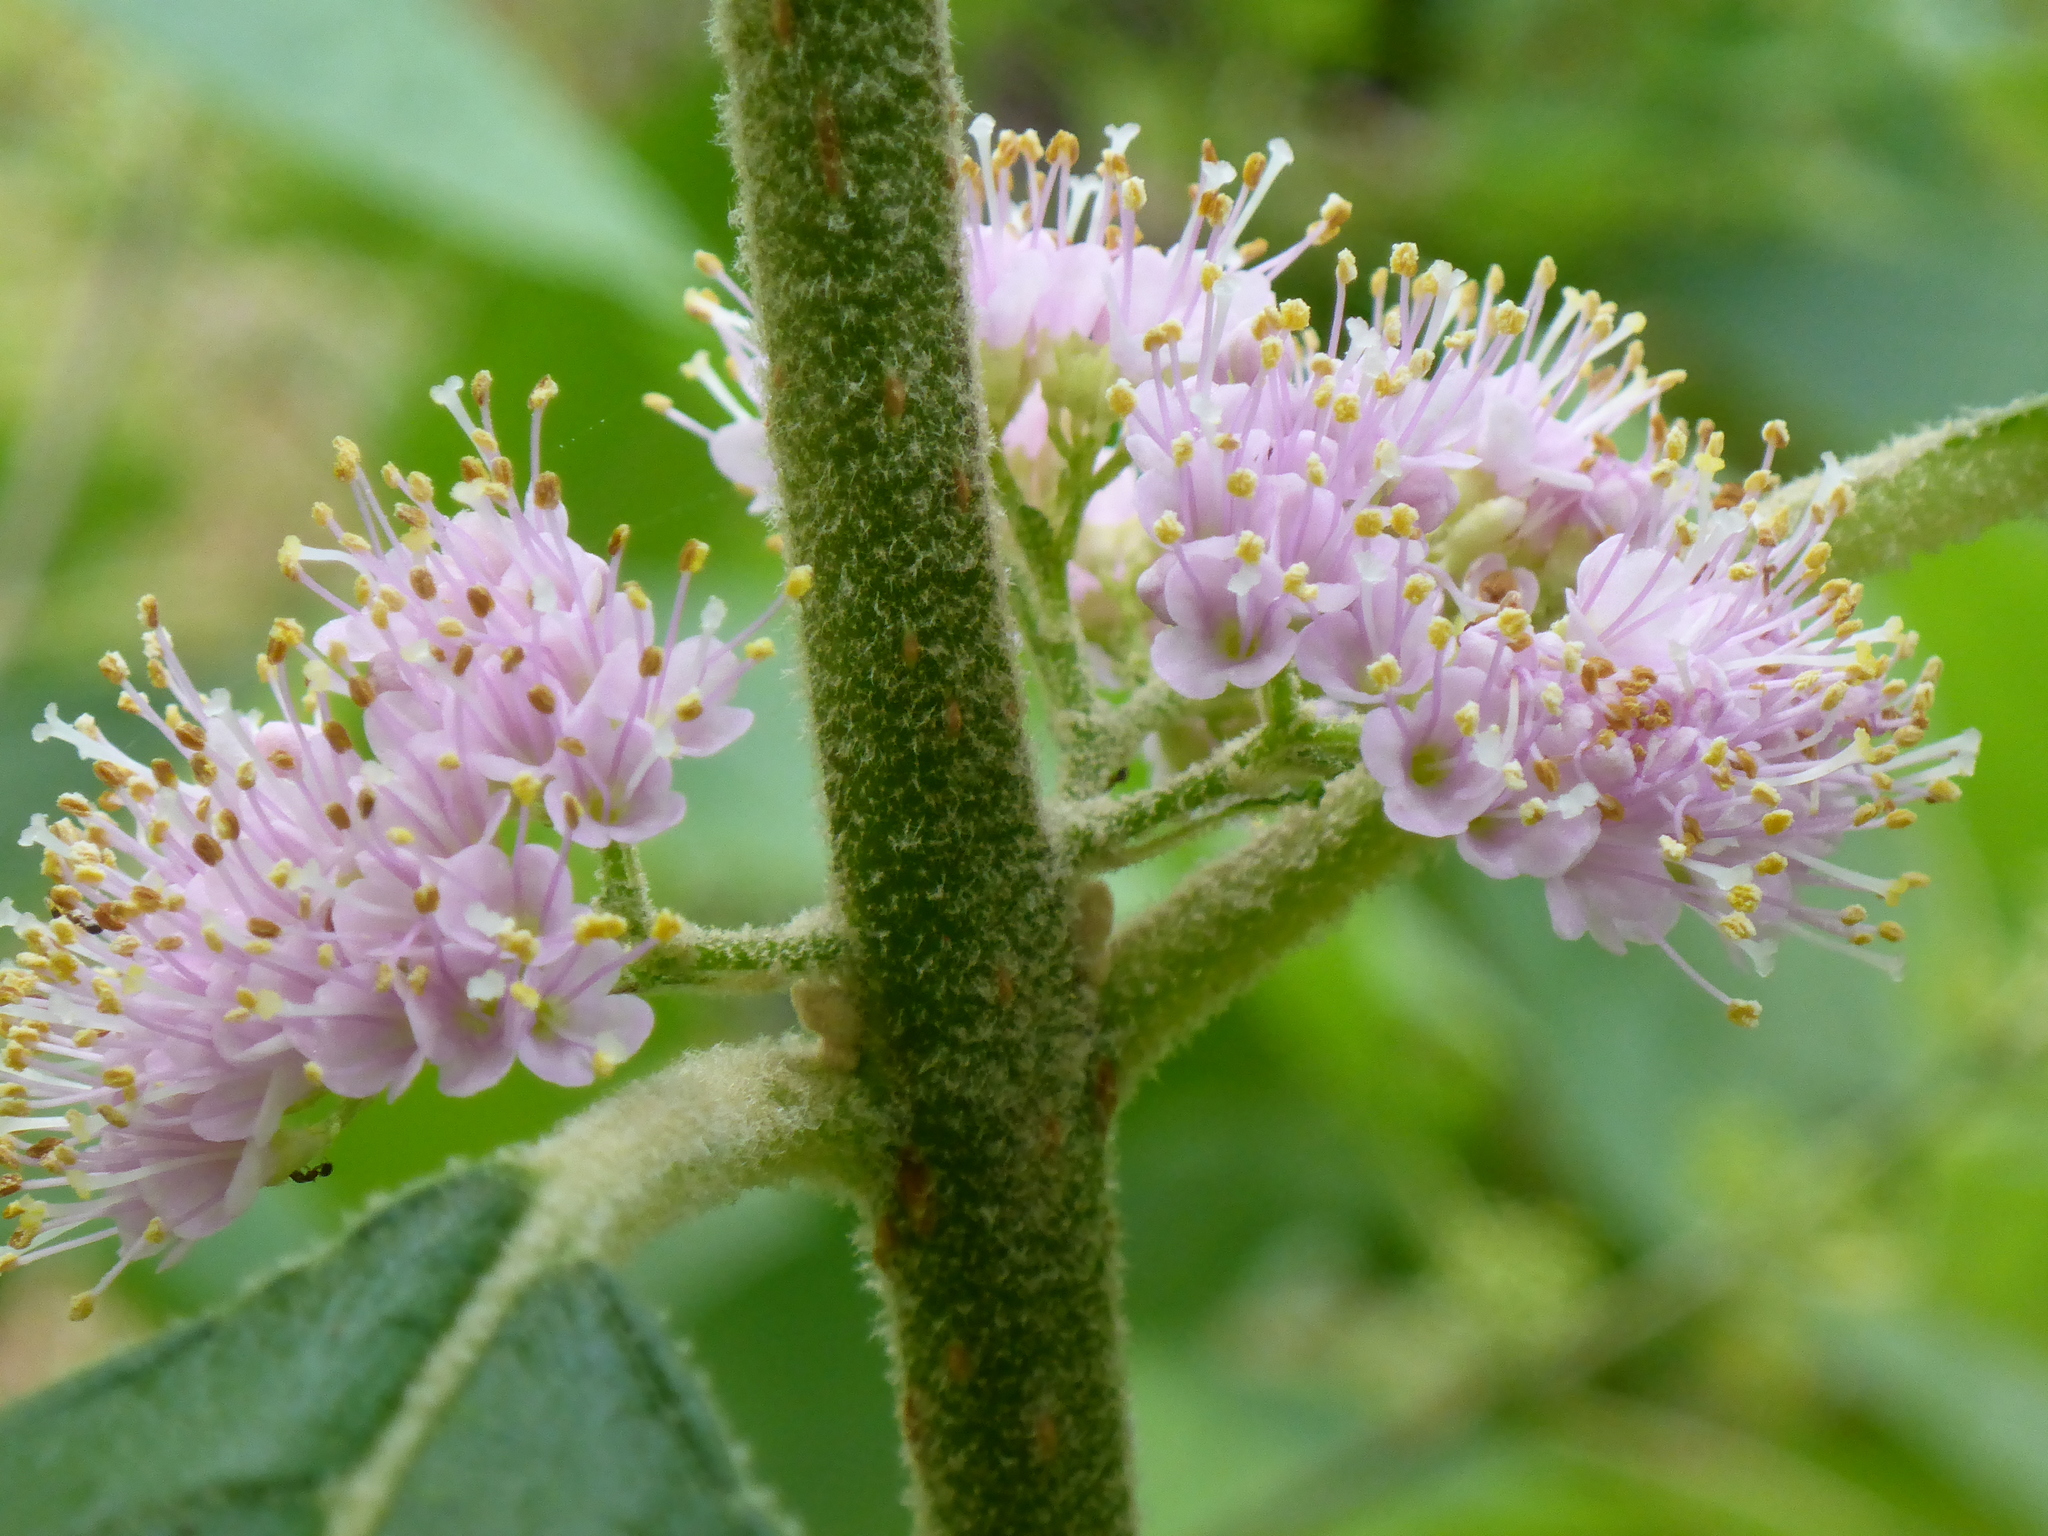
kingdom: Plantae
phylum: Tracheophyta
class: Magnoliopsida
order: Lamiales
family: Lamiaceae
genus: Callicarpa
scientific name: Callicarpa americana
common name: American beautyberry
